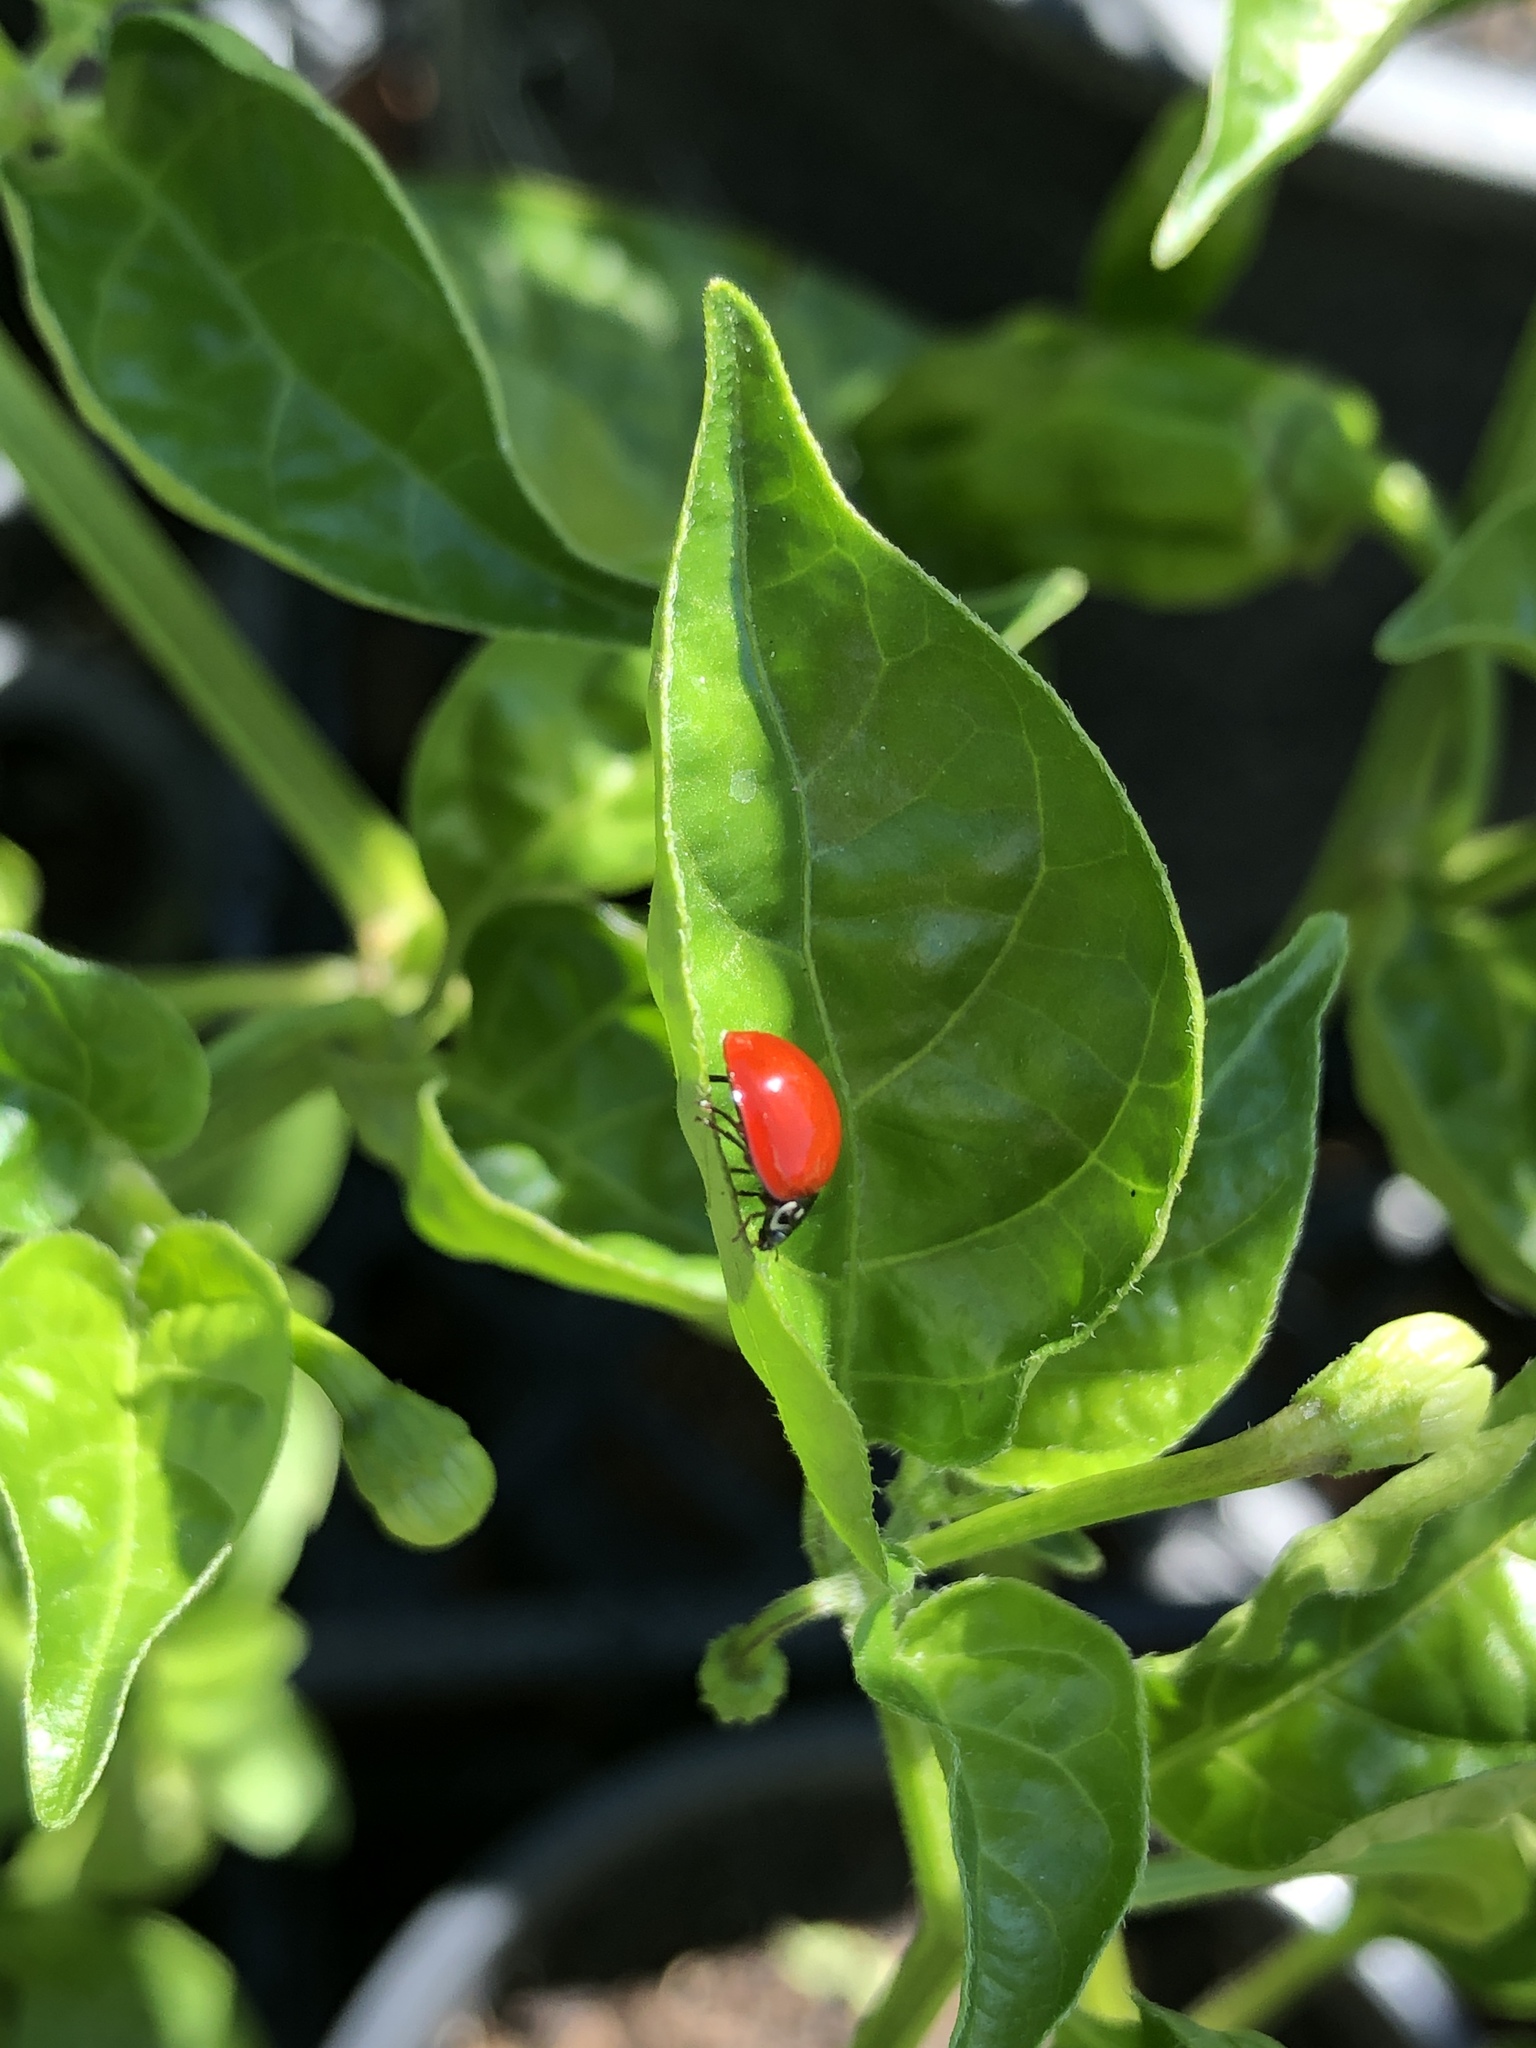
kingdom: Animalia
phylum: Arthropoda
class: Insecta
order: Coleoptera
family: Coccinellidae
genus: Cycloneda
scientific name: Cycloneda sanguinea
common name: Ladybird beetle
